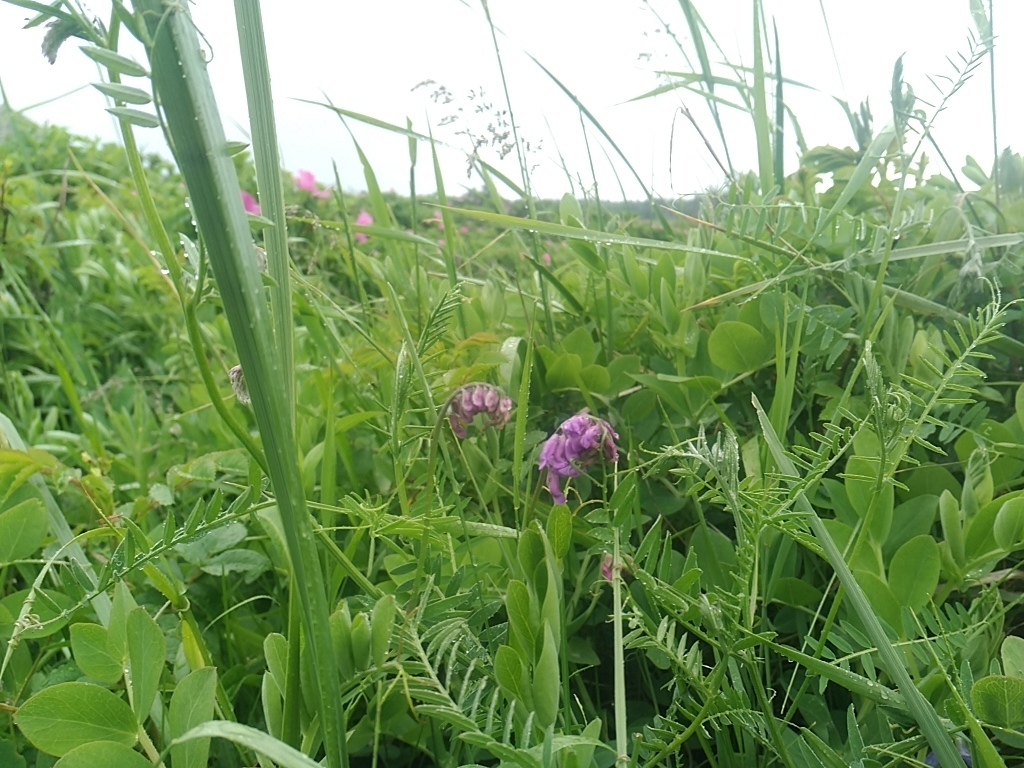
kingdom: Plantae
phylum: Tracheophyta
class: Magnoliopsida
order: Fabales
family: Fabaceae
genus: Vicia
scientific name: Vicia cracca
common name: Bird vetch
